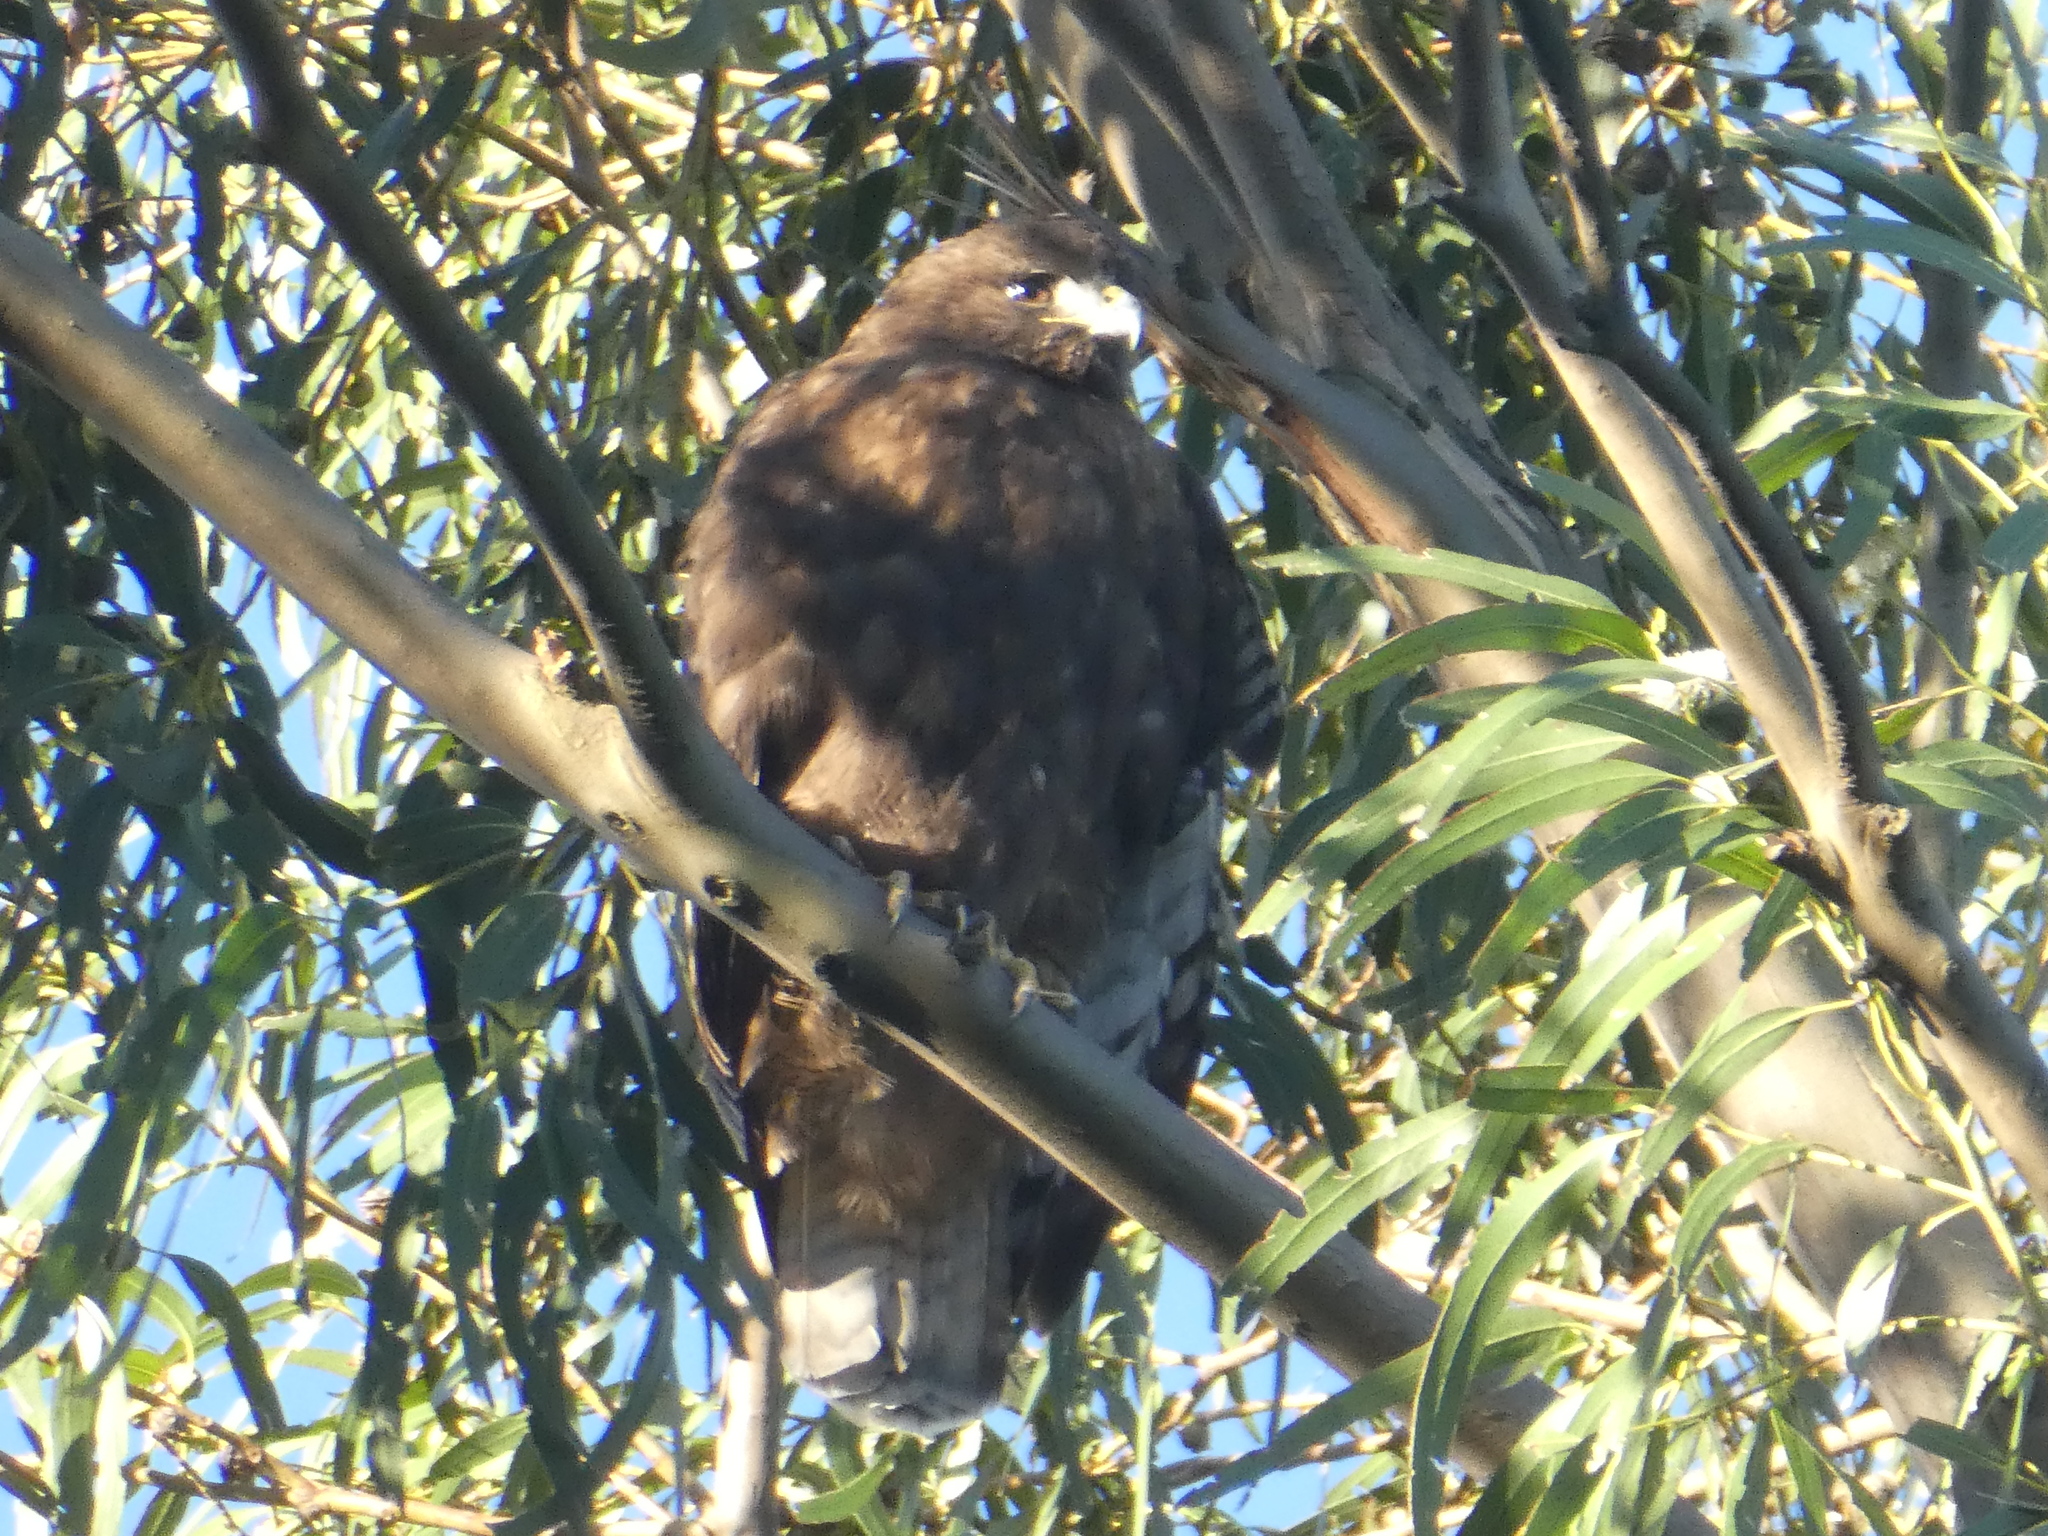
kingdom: Animalia
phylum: Chordata
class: Aves
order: Accipitriformes
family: Accipitridae
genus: Buteo
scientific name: Buteo jamaicensis
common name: Red-tailed hawk
